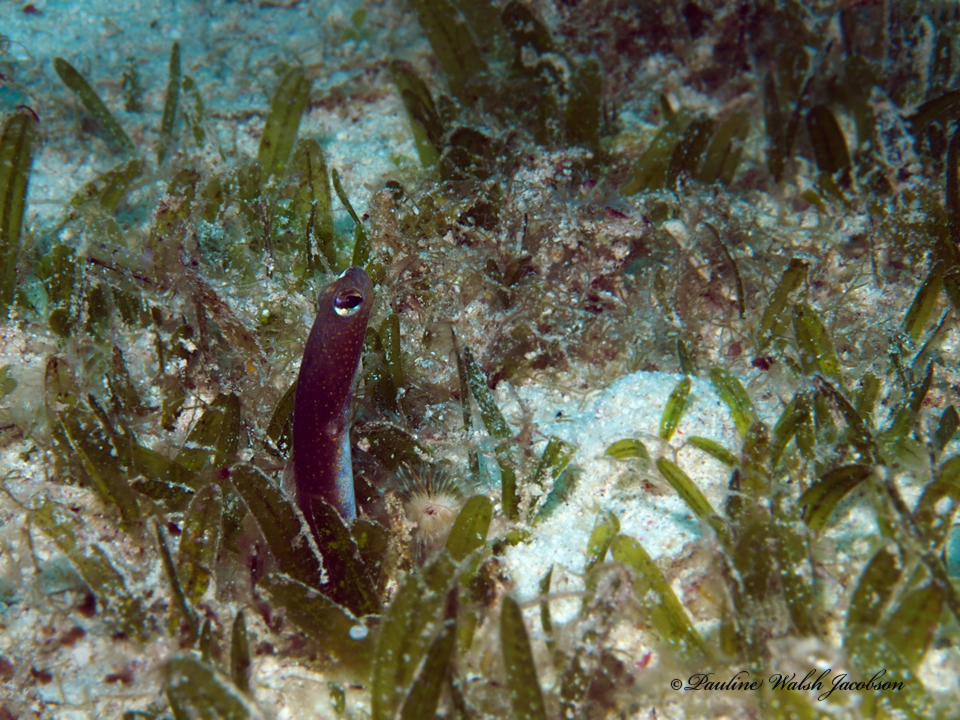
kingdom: Animalia
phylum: Chordata
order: Anguilliformes
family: Congridae
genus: Heteroconger
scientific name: Heteroconger longissimus
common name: Garden eel
